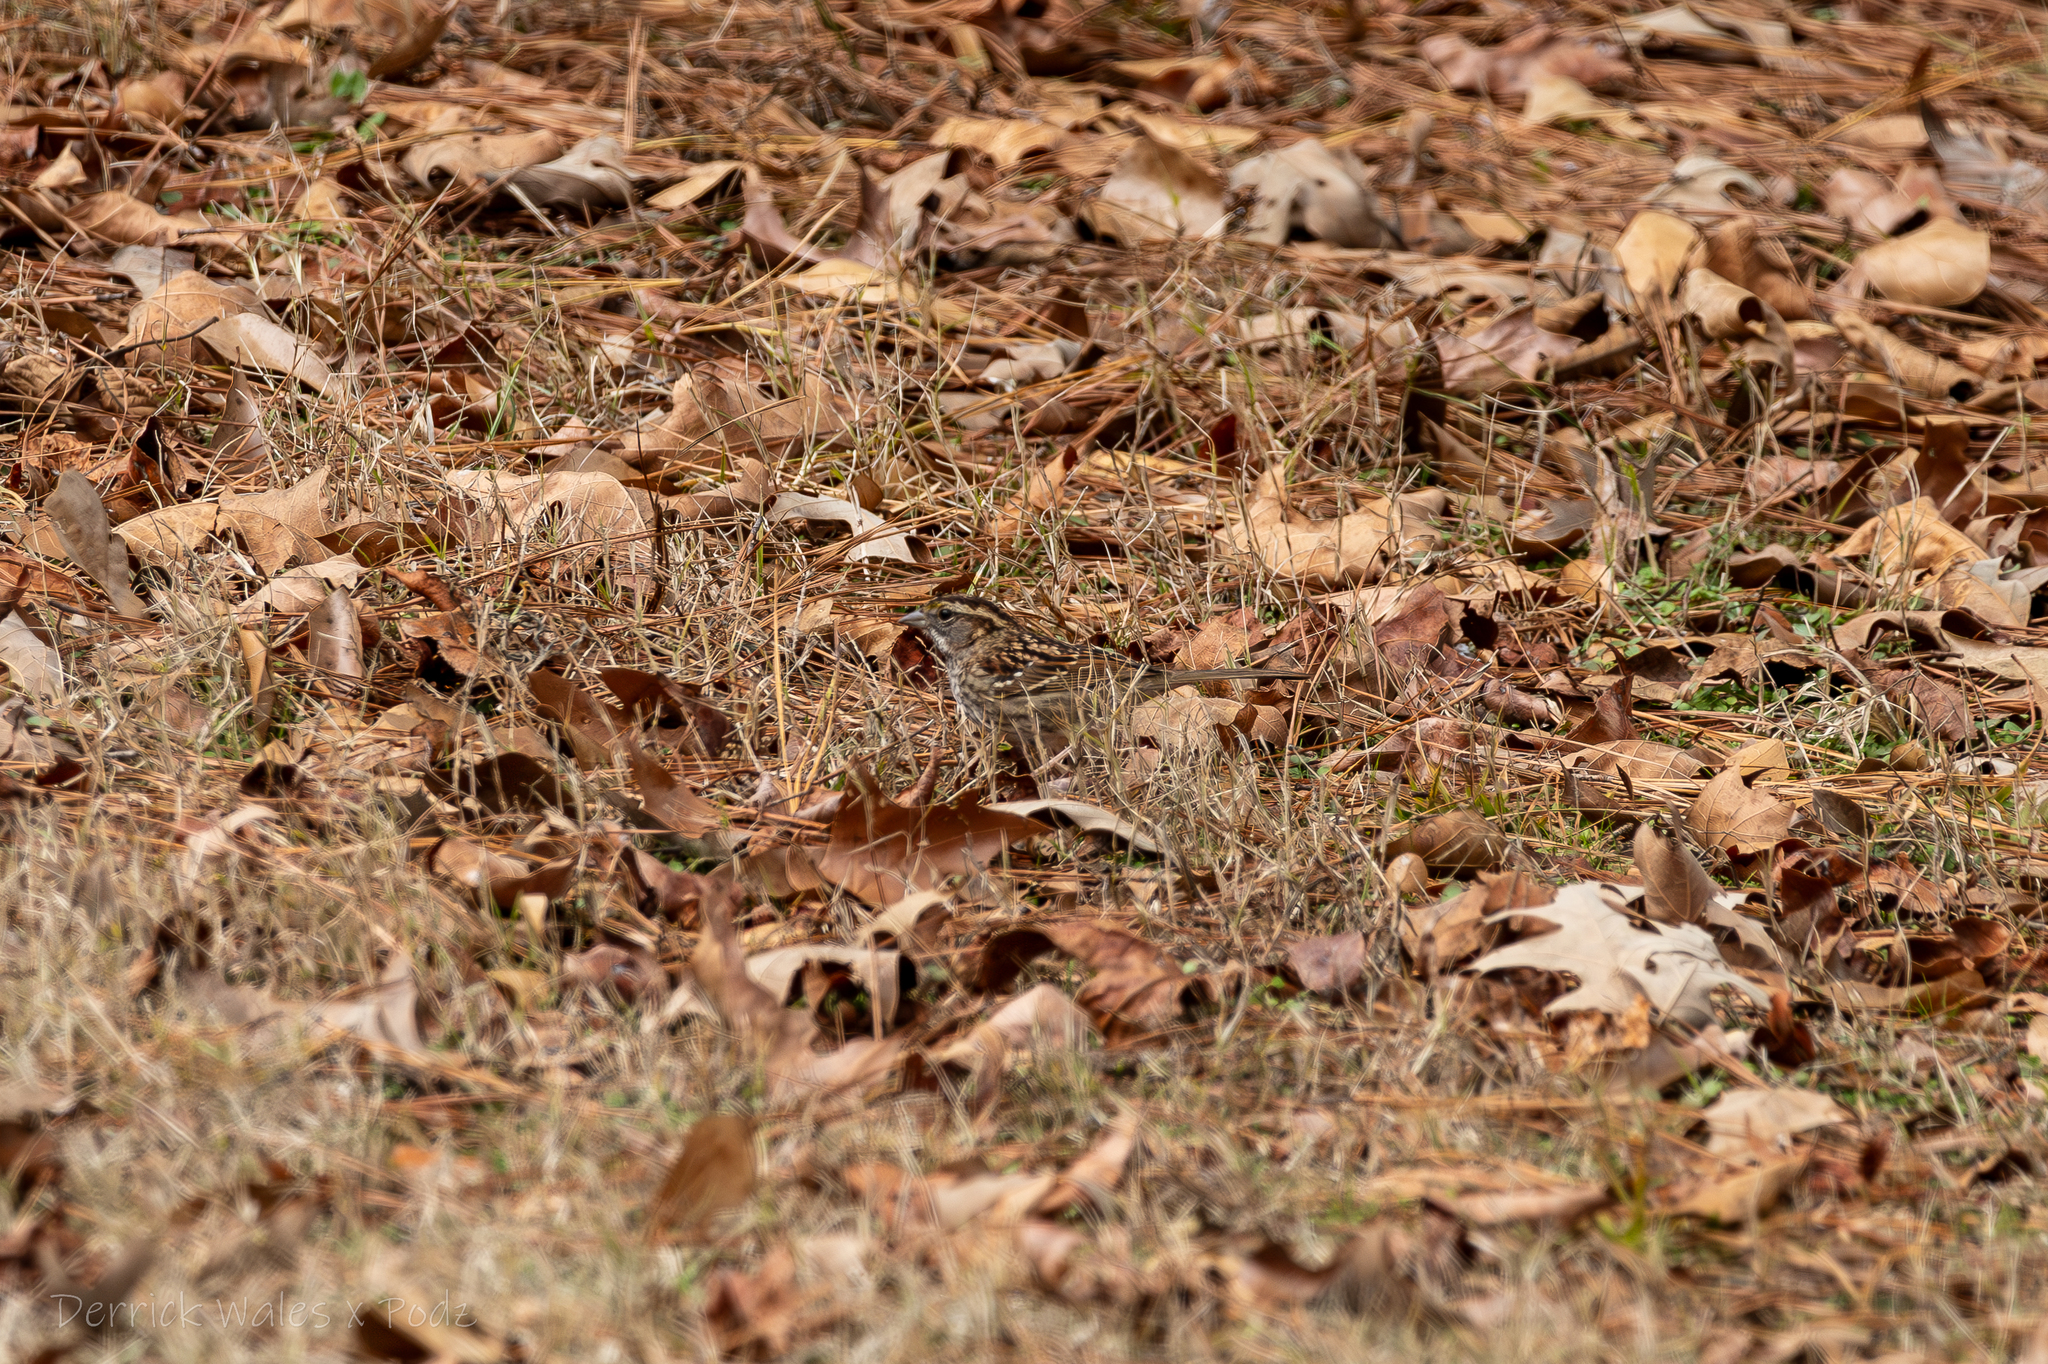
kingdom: Animalia
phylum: Chordata
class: Aves
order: Passeriformes
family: Passerellidae
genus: Zonotrichia
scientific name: Zonotrichia albicollis
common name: White-throated sparrow
